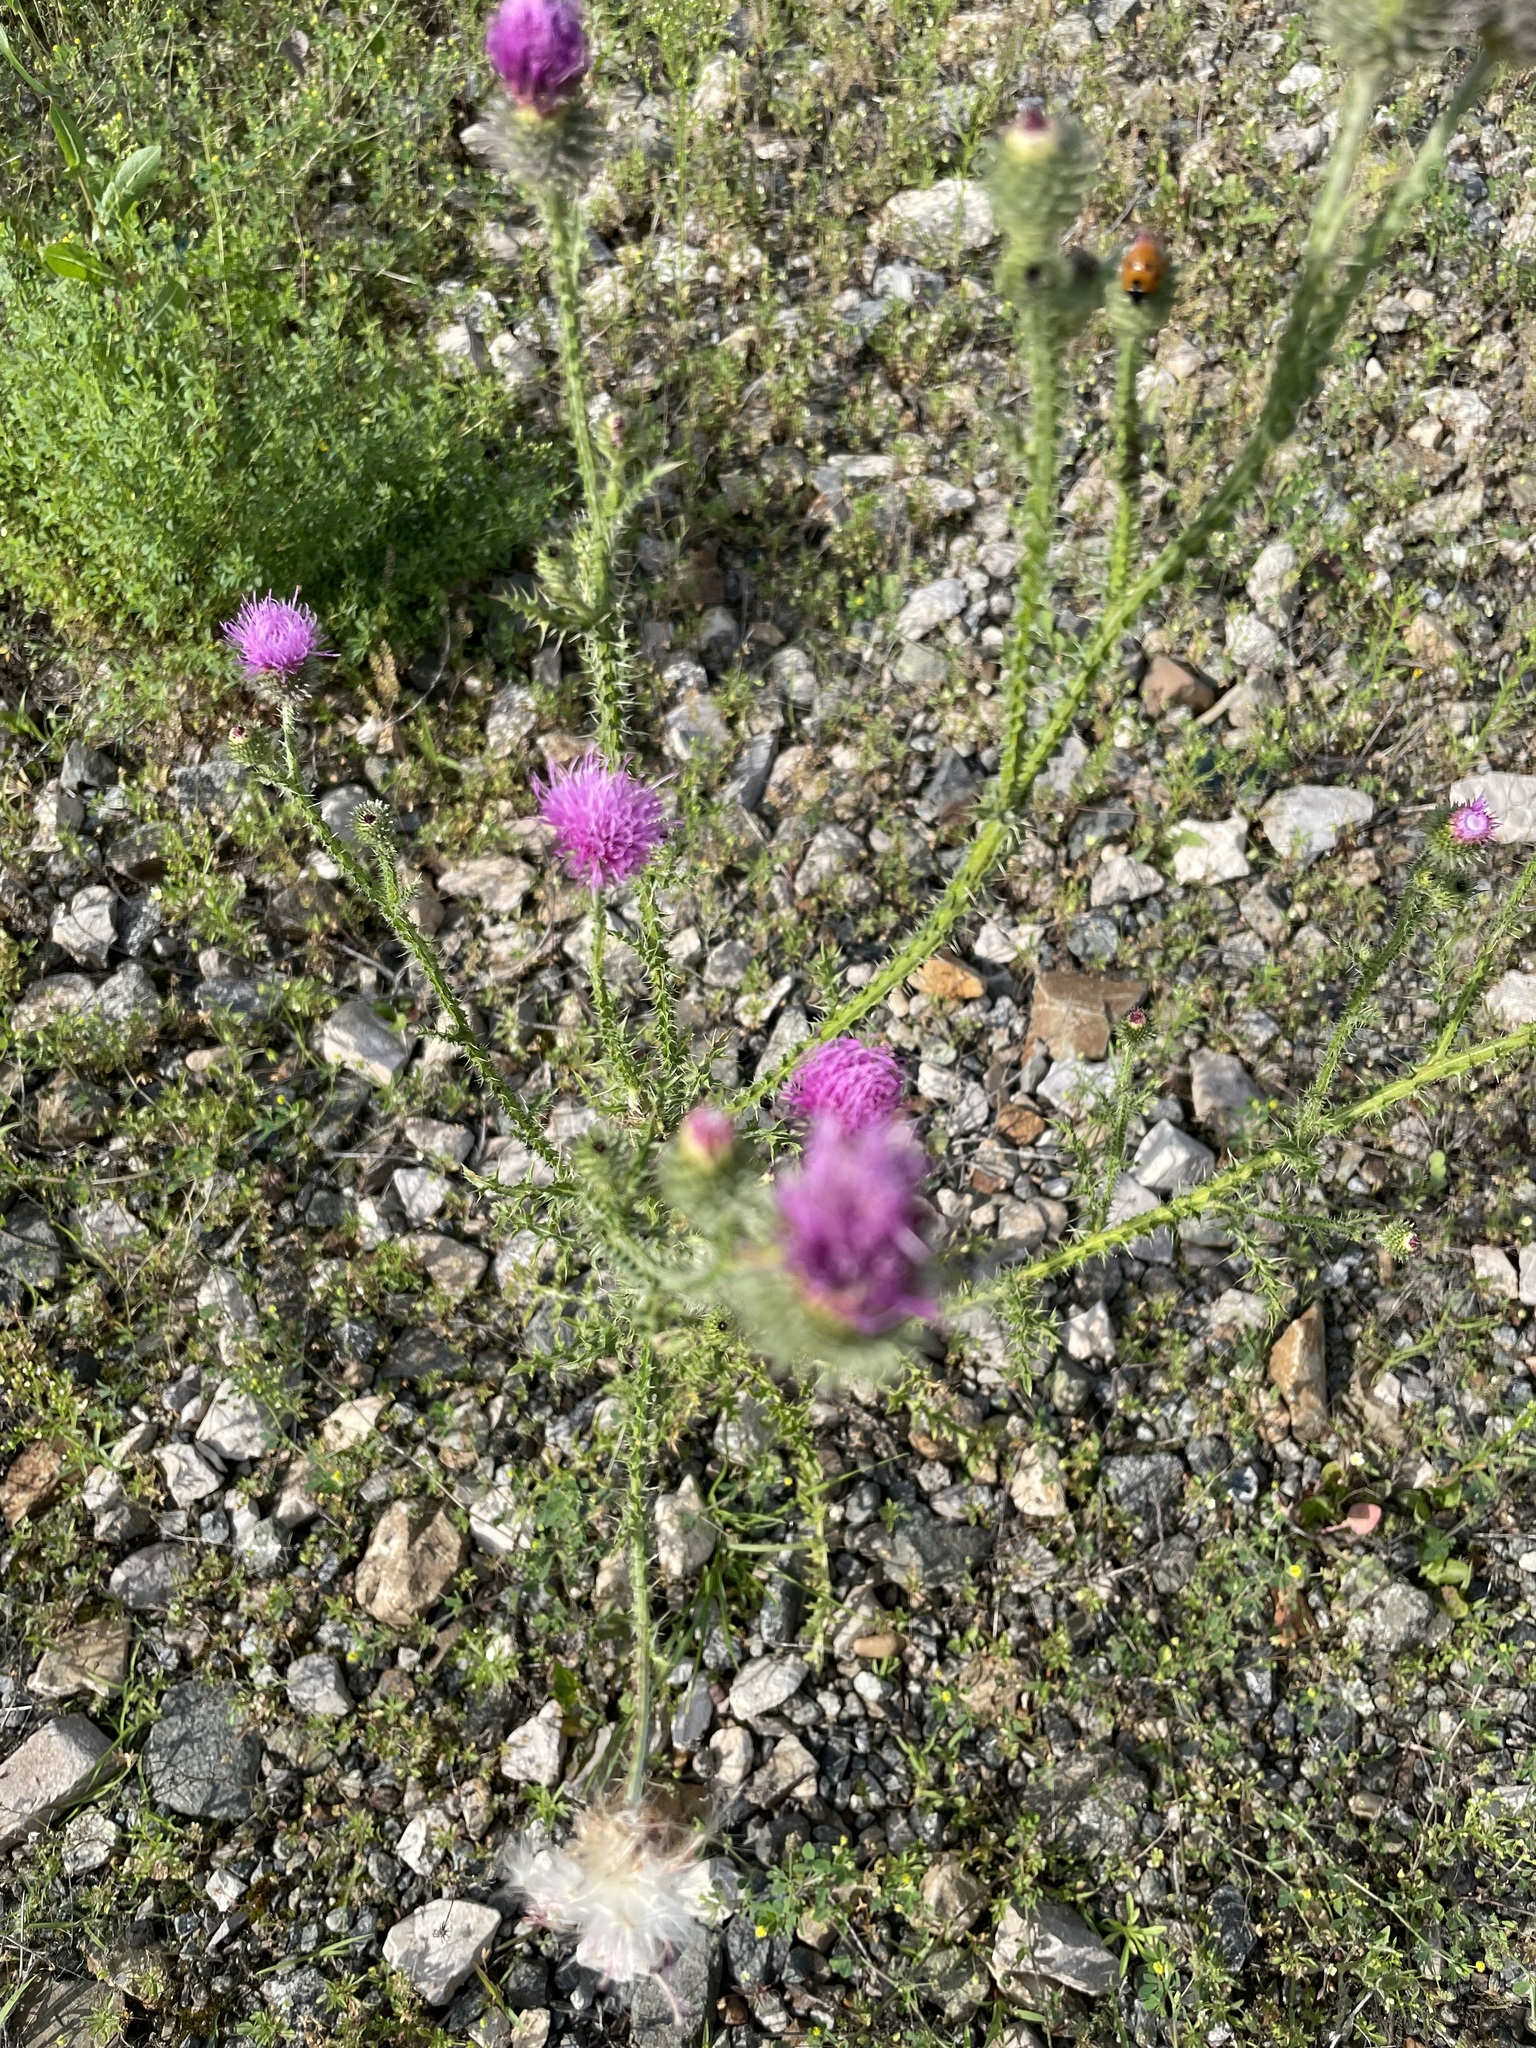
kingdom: Plantae
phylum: Tracheophyta
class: Magnoliopsida
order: Asterales
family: Asteraceae
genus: Carduus
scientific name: Carduus acanthoides
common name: Plumeless thistle
